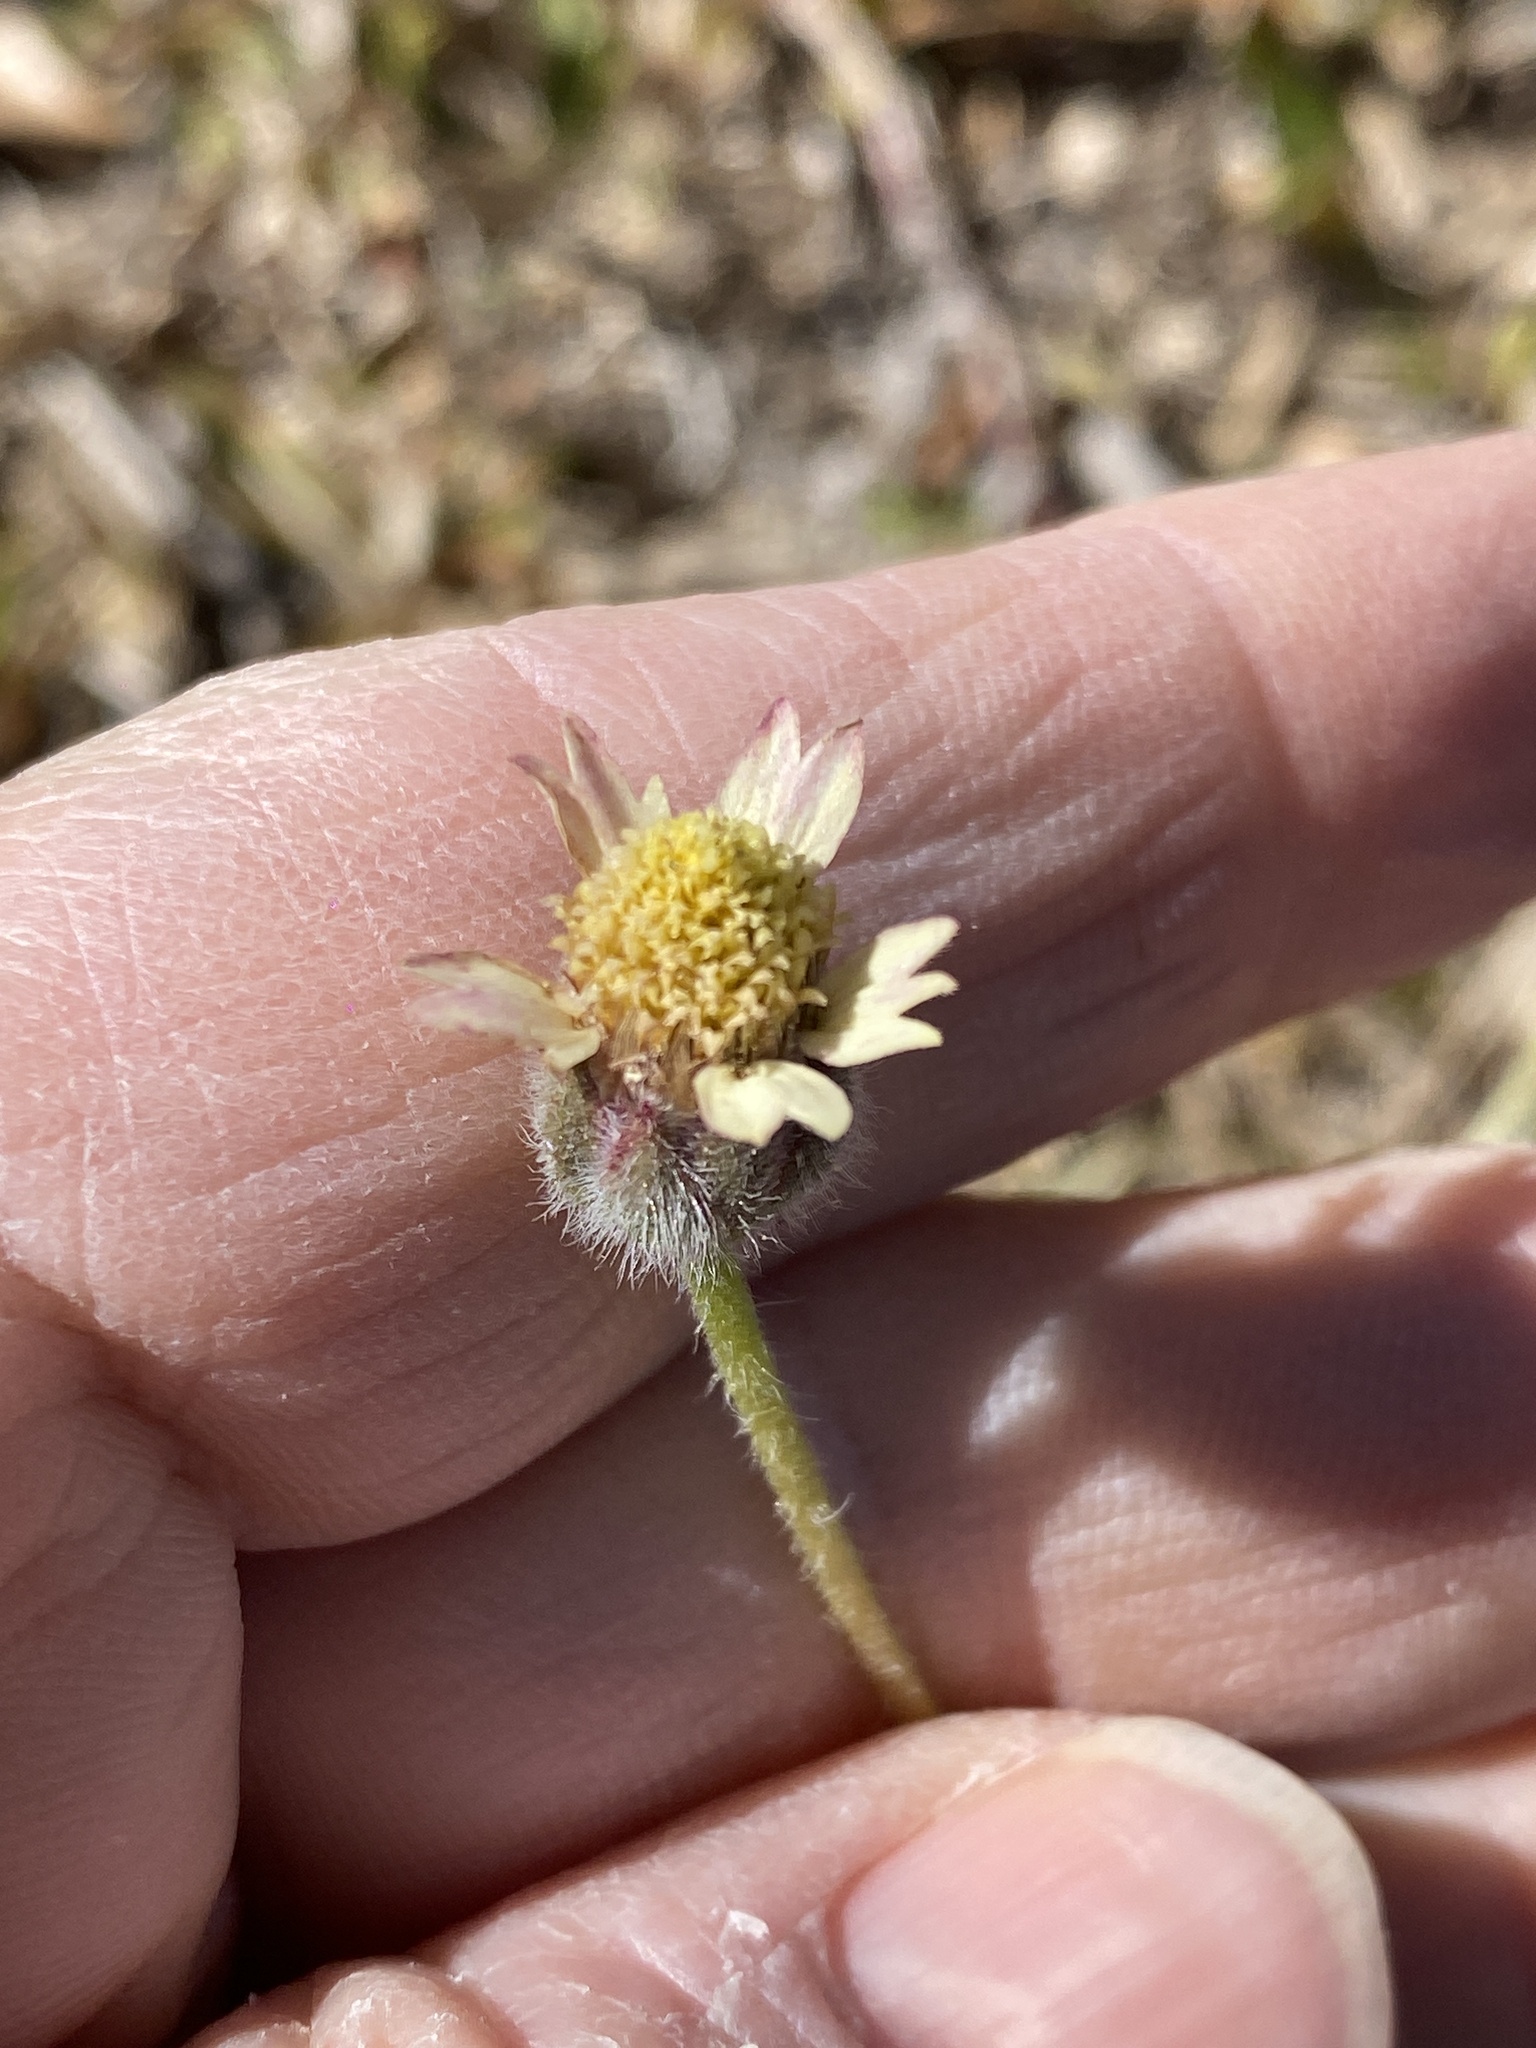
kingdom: Plantae
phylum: Tracheophyta
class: Magnoliopsida
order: Asterales
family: Asteraceae
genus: Tridax
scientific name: Tridax procumbens
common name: Coatbuttons
